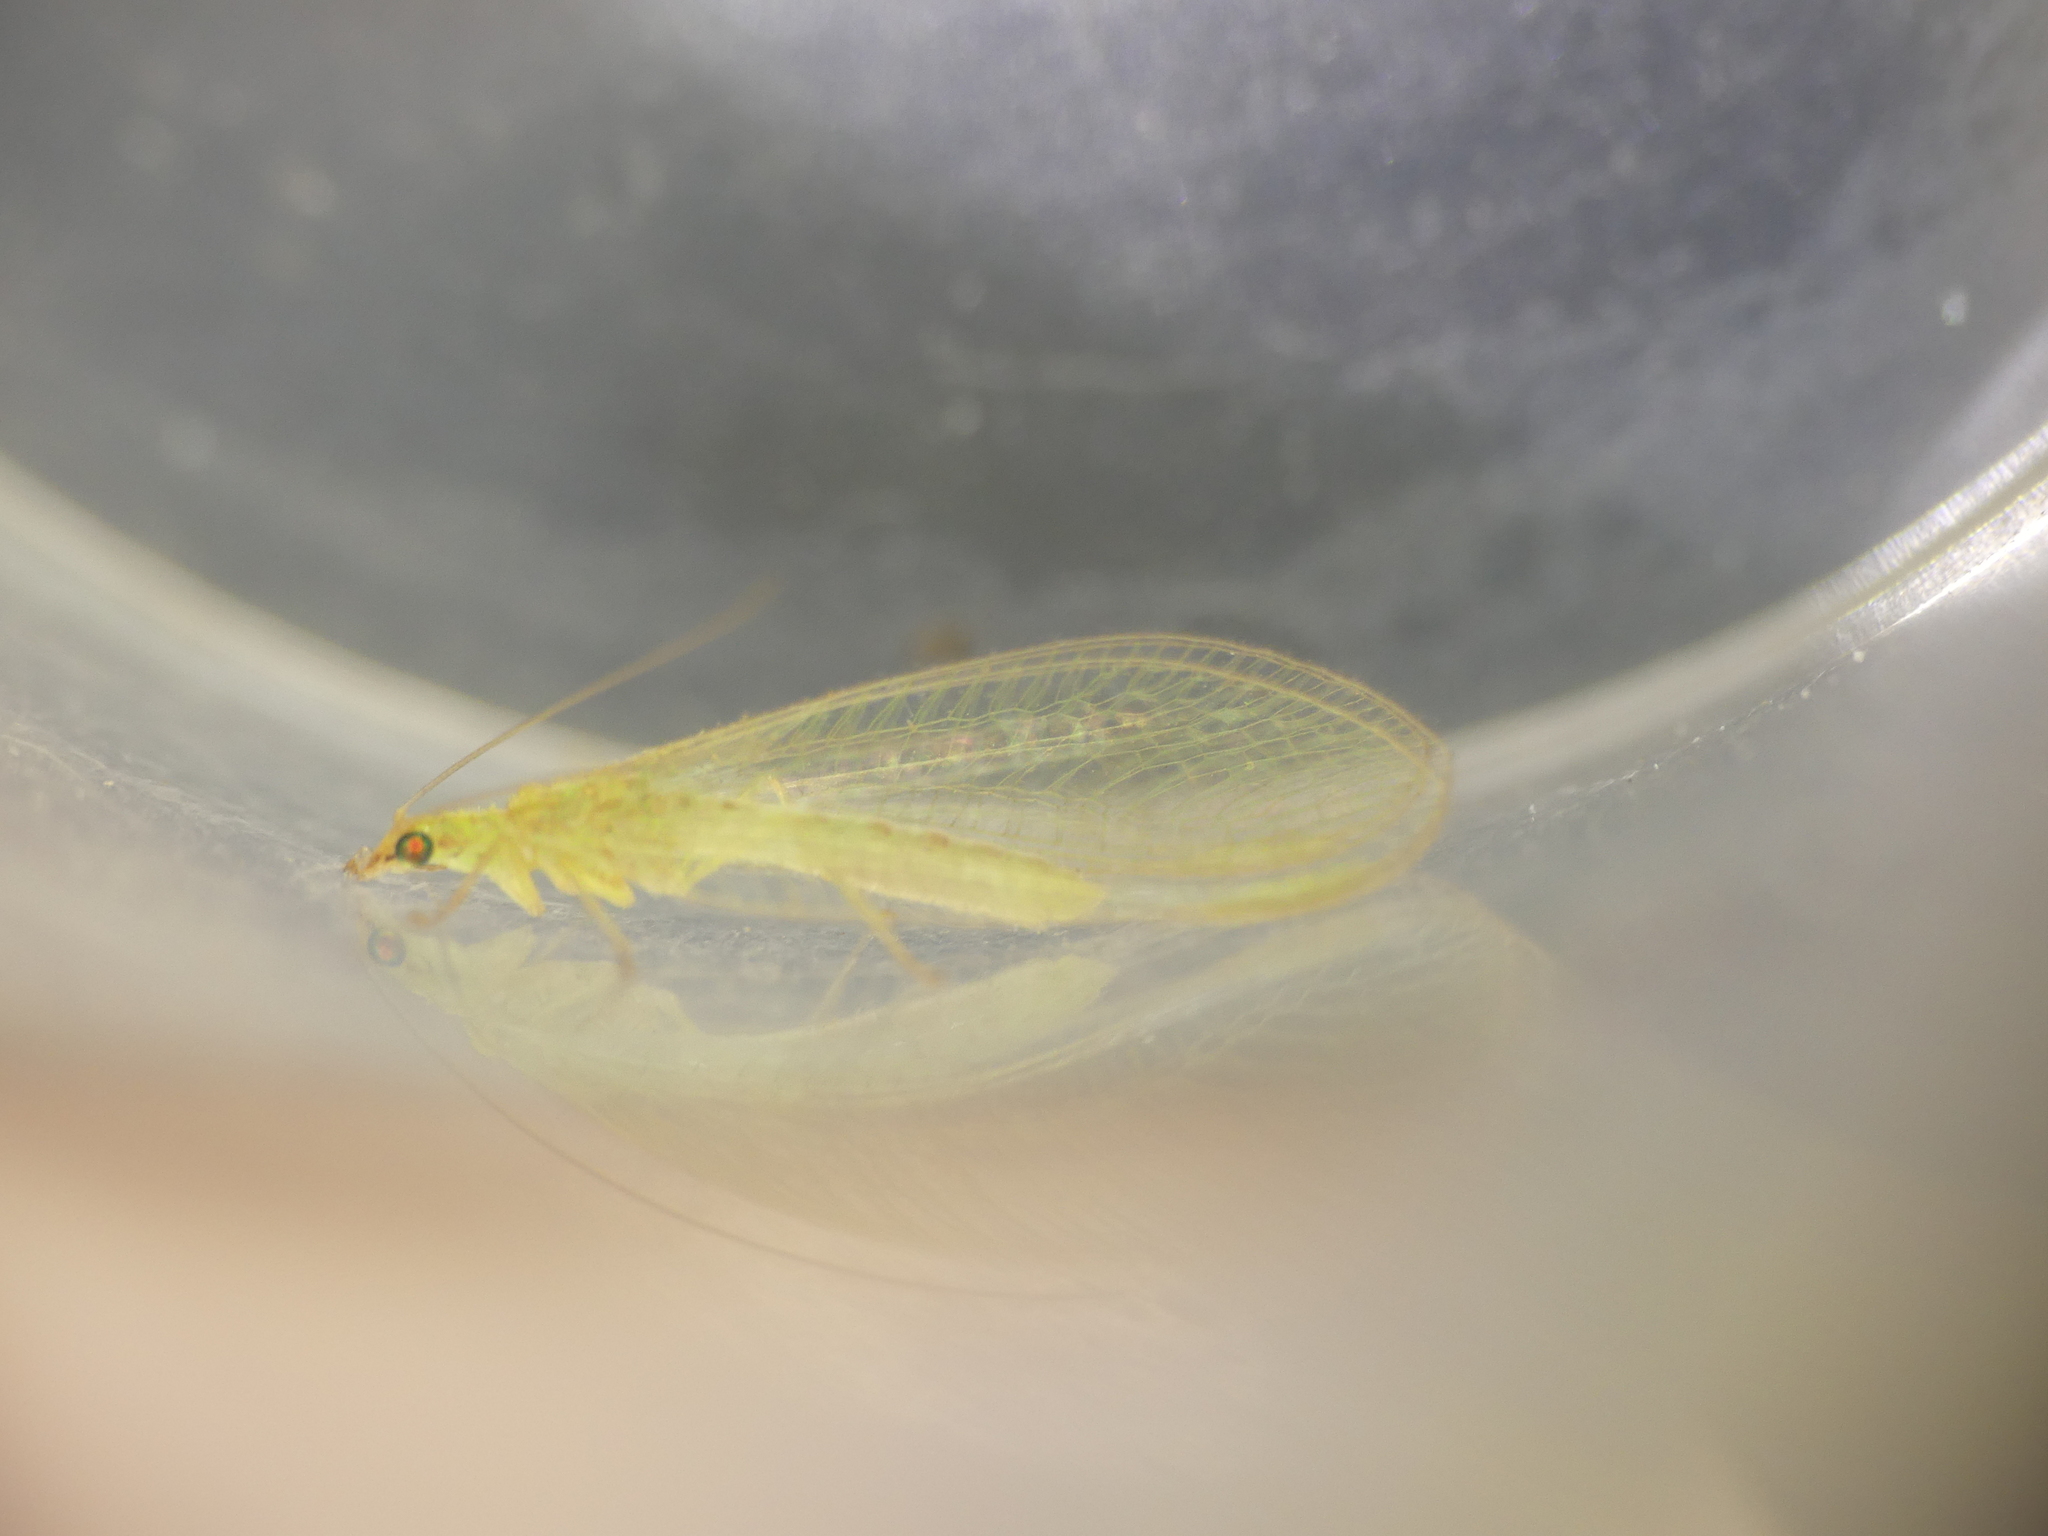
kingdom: Animalia
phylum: Arthropoda
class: Insecta
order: Neuroptera
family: Chrysopidae
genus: Chrysoperla
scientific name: Chrysoperla
